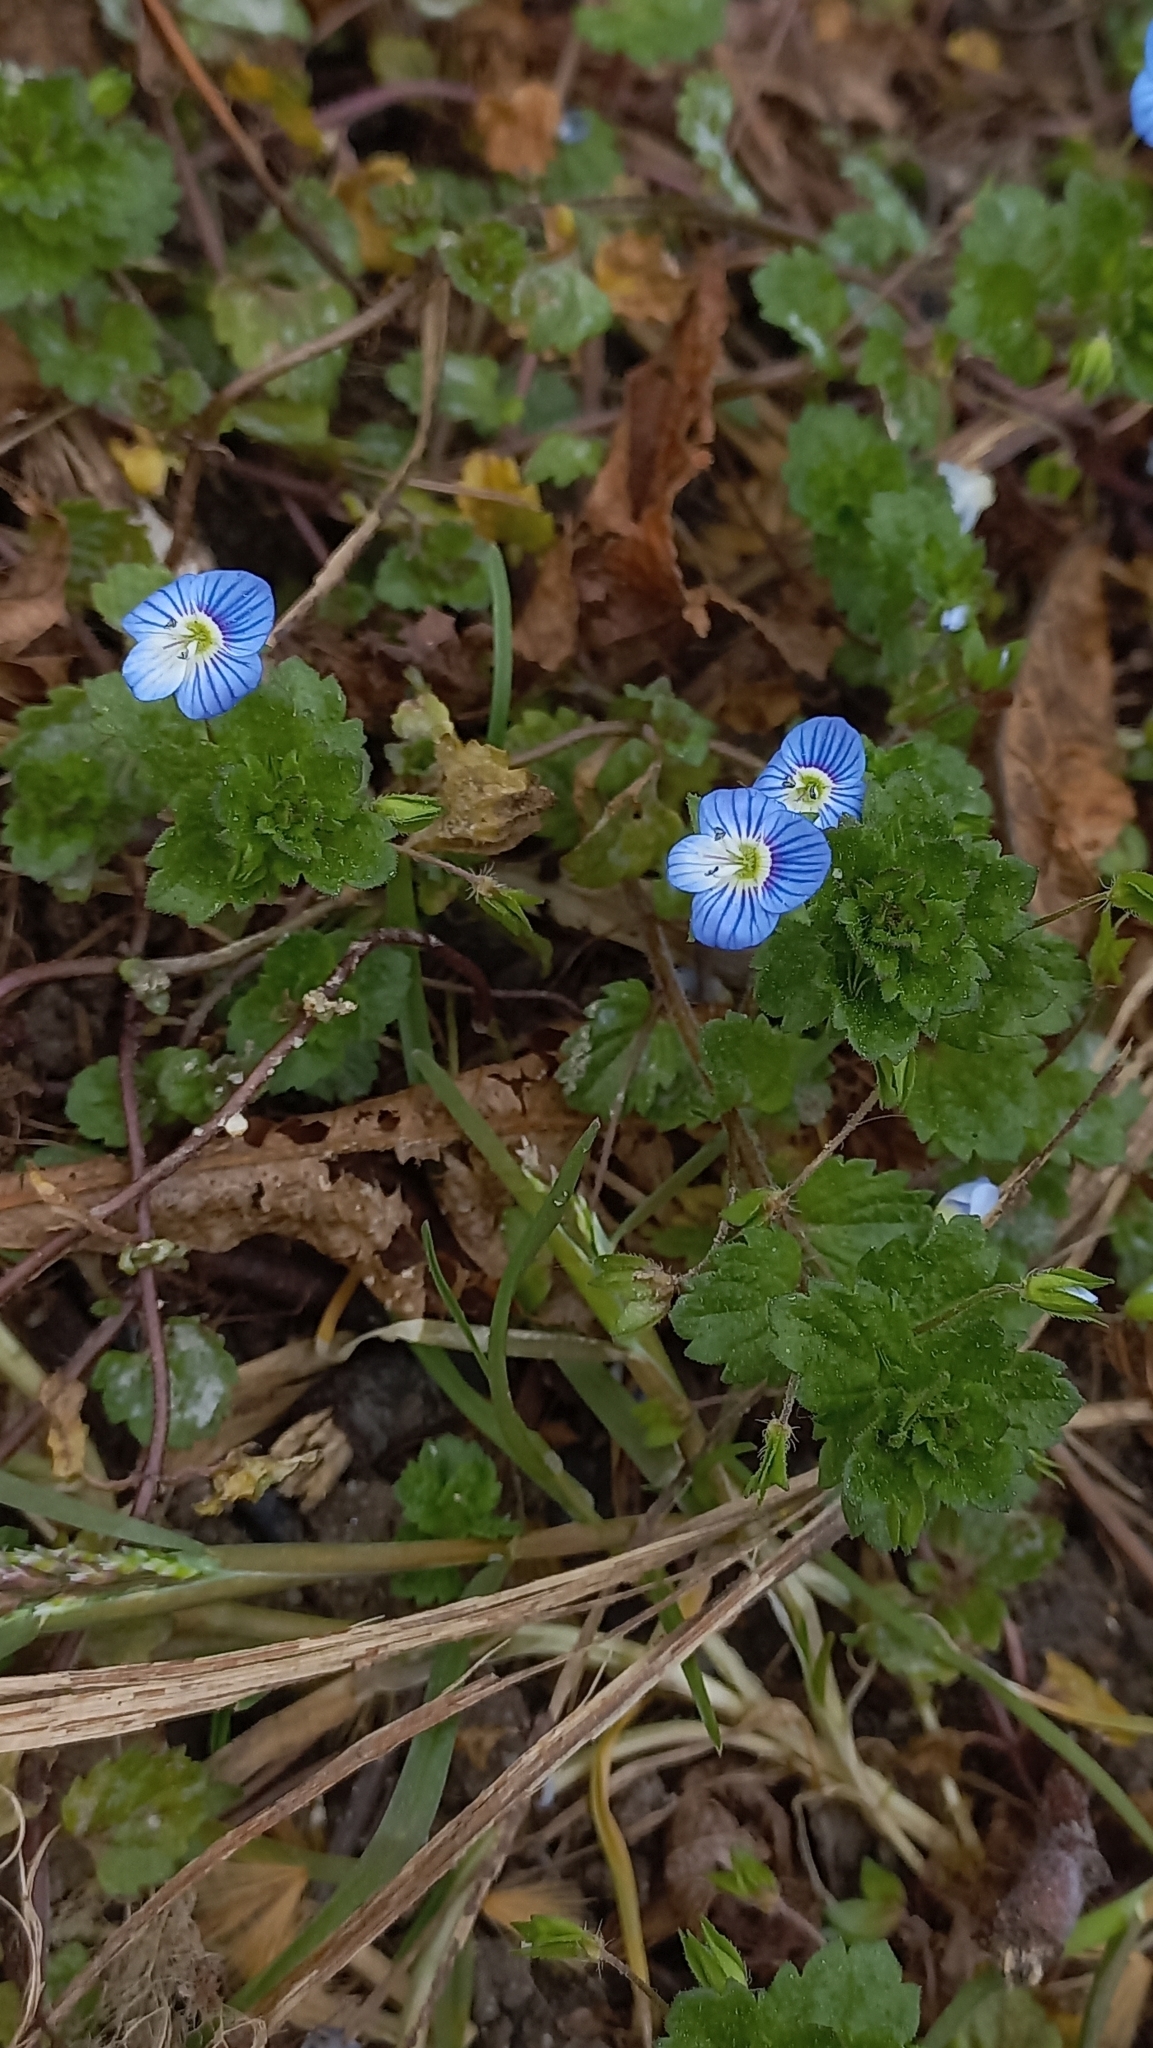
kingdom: Plantae
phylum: Tracheophyta
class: Magnoliopsida
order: Lamiales
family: Plantaginaceae
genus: Veronica
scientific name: Veronica persica
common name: Common field-speedwell
